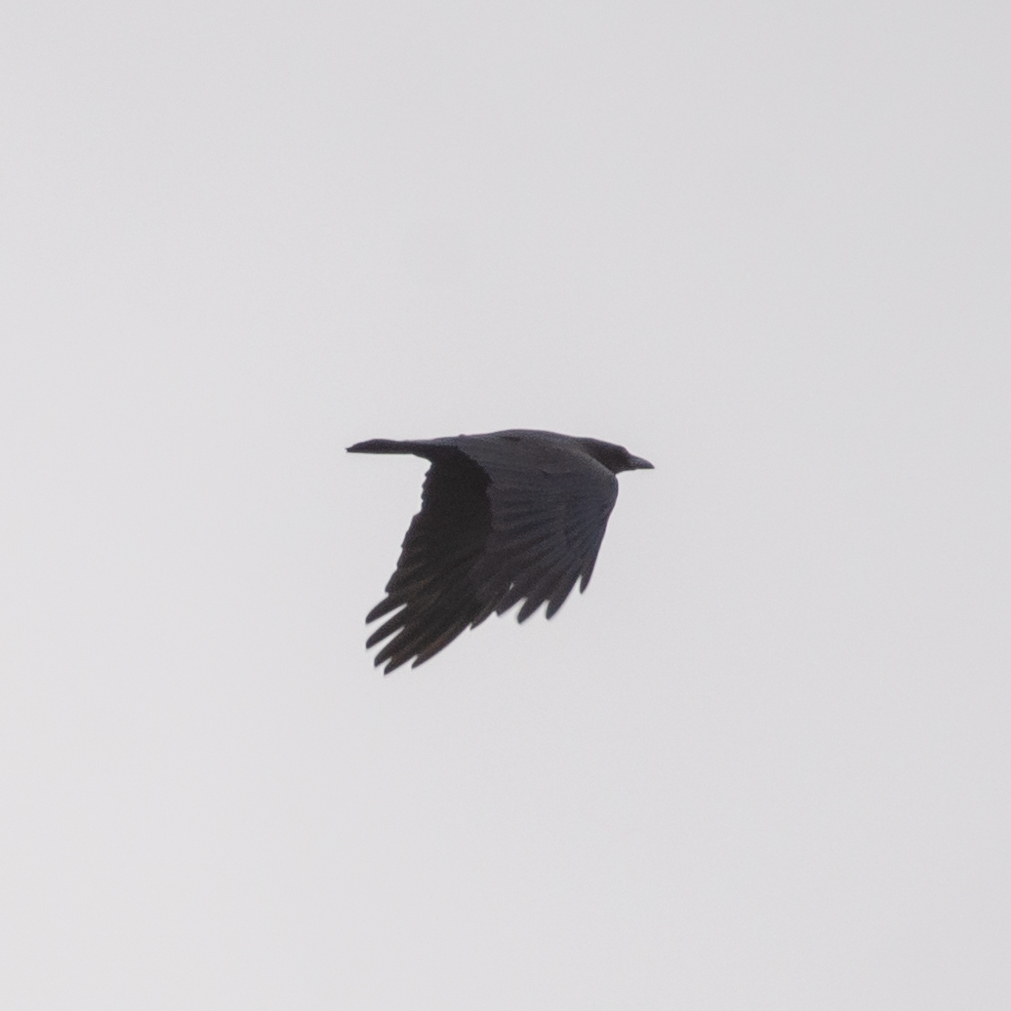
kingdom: Animalia
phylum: Chordata
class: Aves
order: Passeriformes
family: Corvidae
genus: Corvus
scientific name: Corvus corone
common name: Carrion crow
